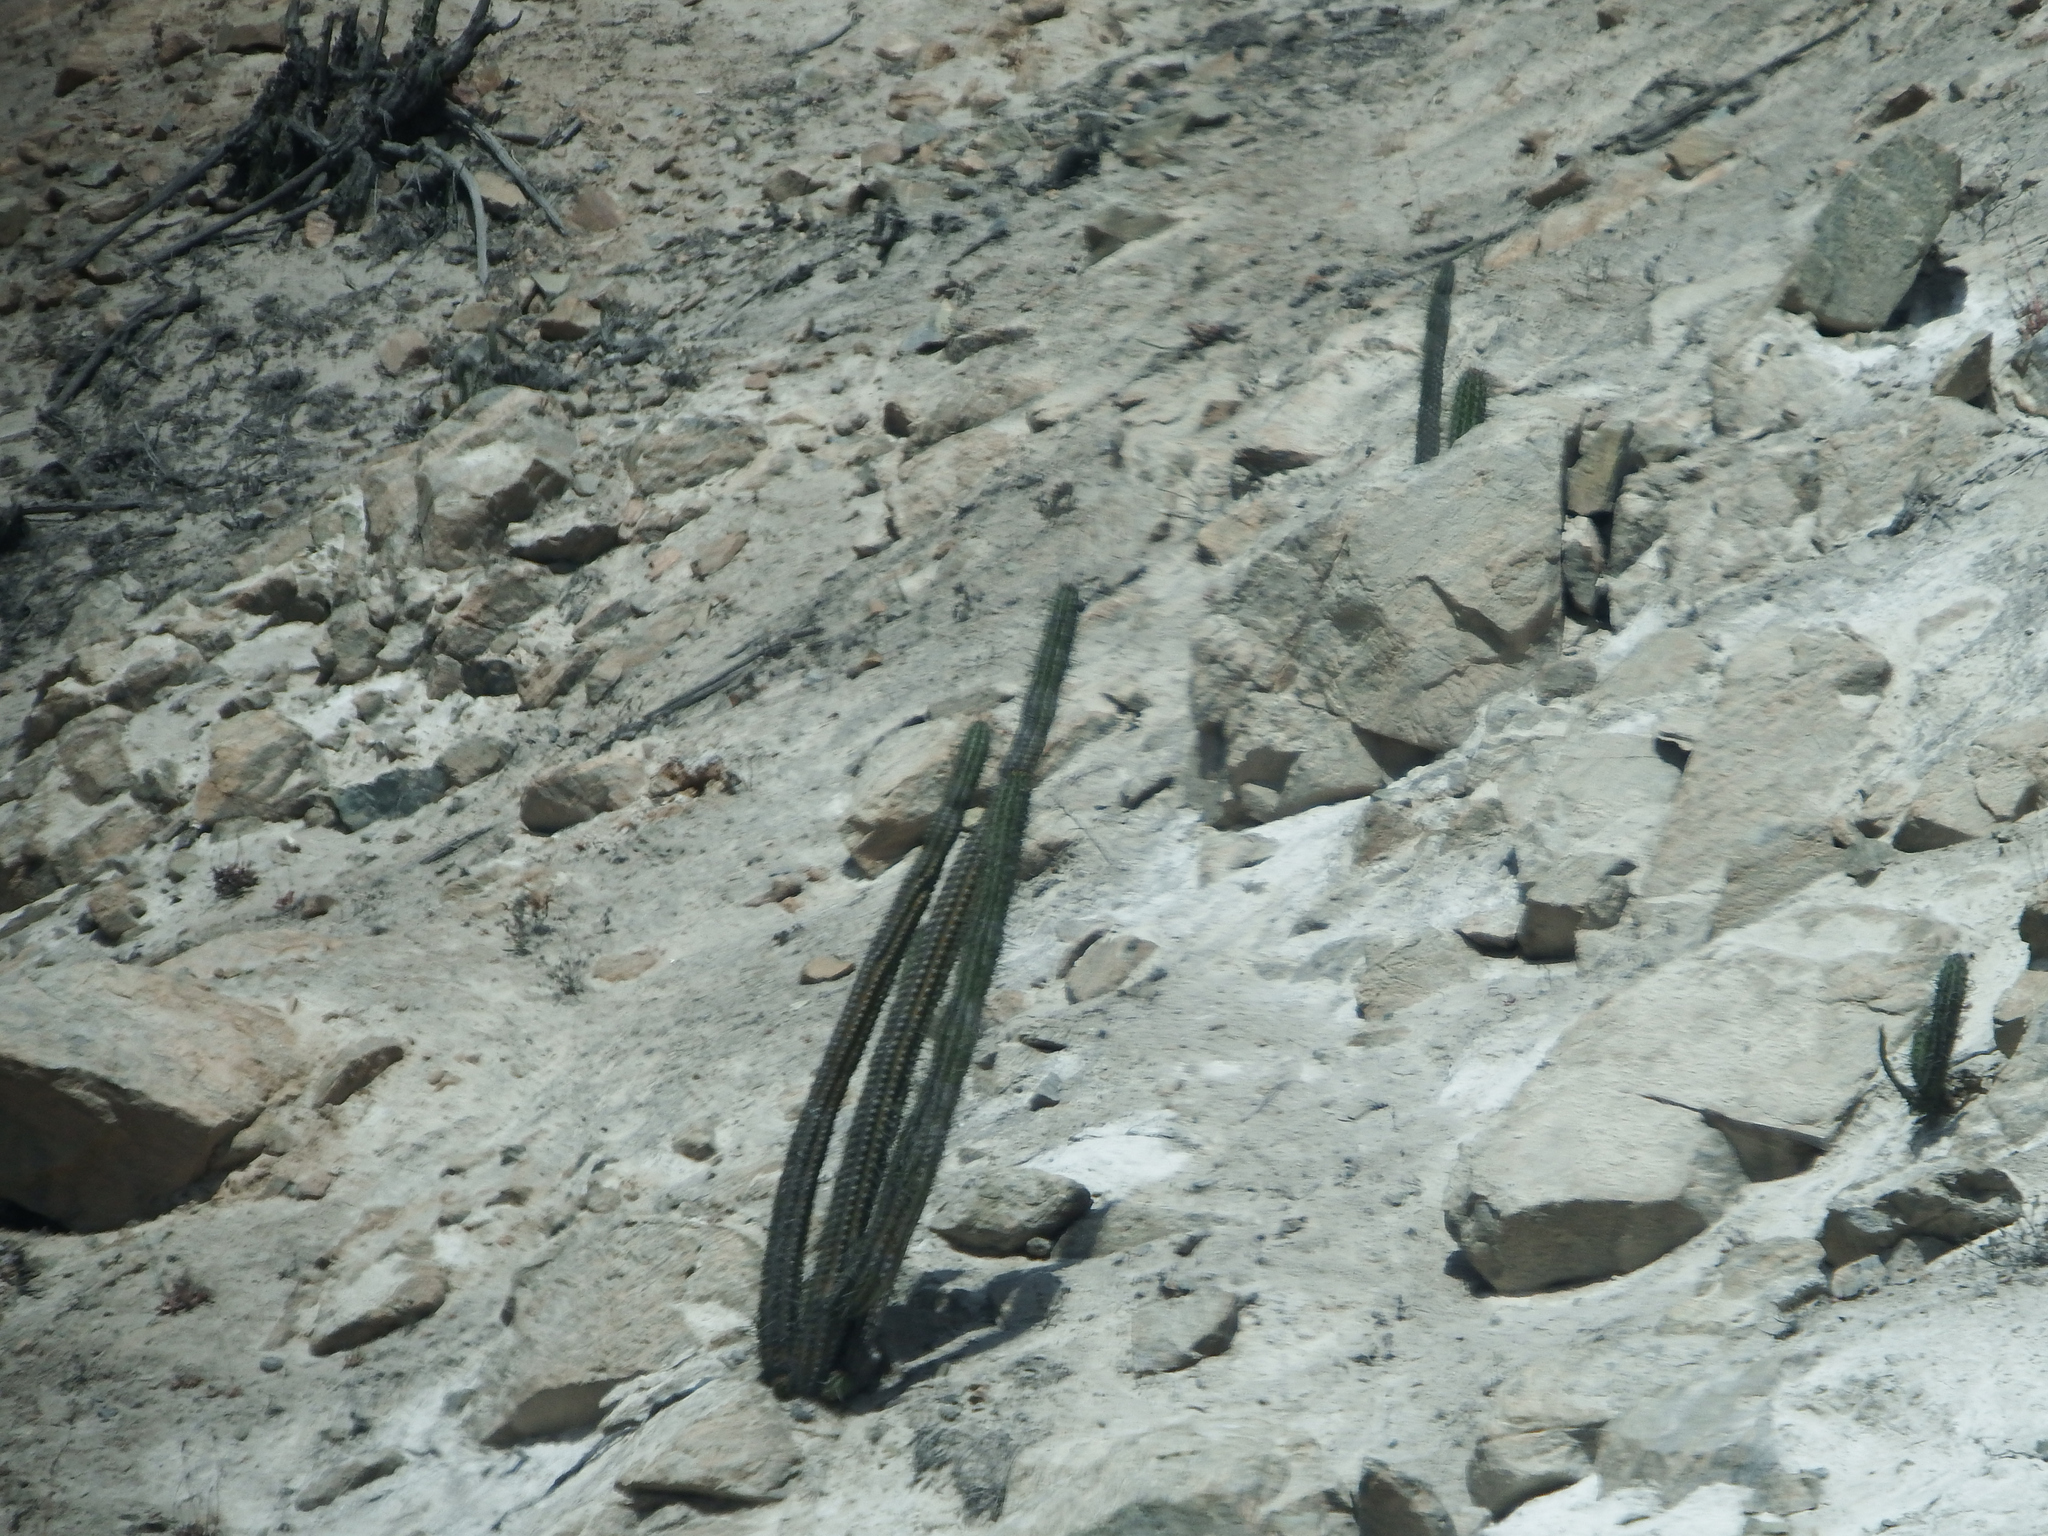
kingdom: Plantae
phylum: Tracheophyta
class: Magnoliopsida
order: Caryophyllales
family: Cactaceae
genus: Weberbauerocereus
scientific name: Weberbauerocereus cephalomacrostibas
